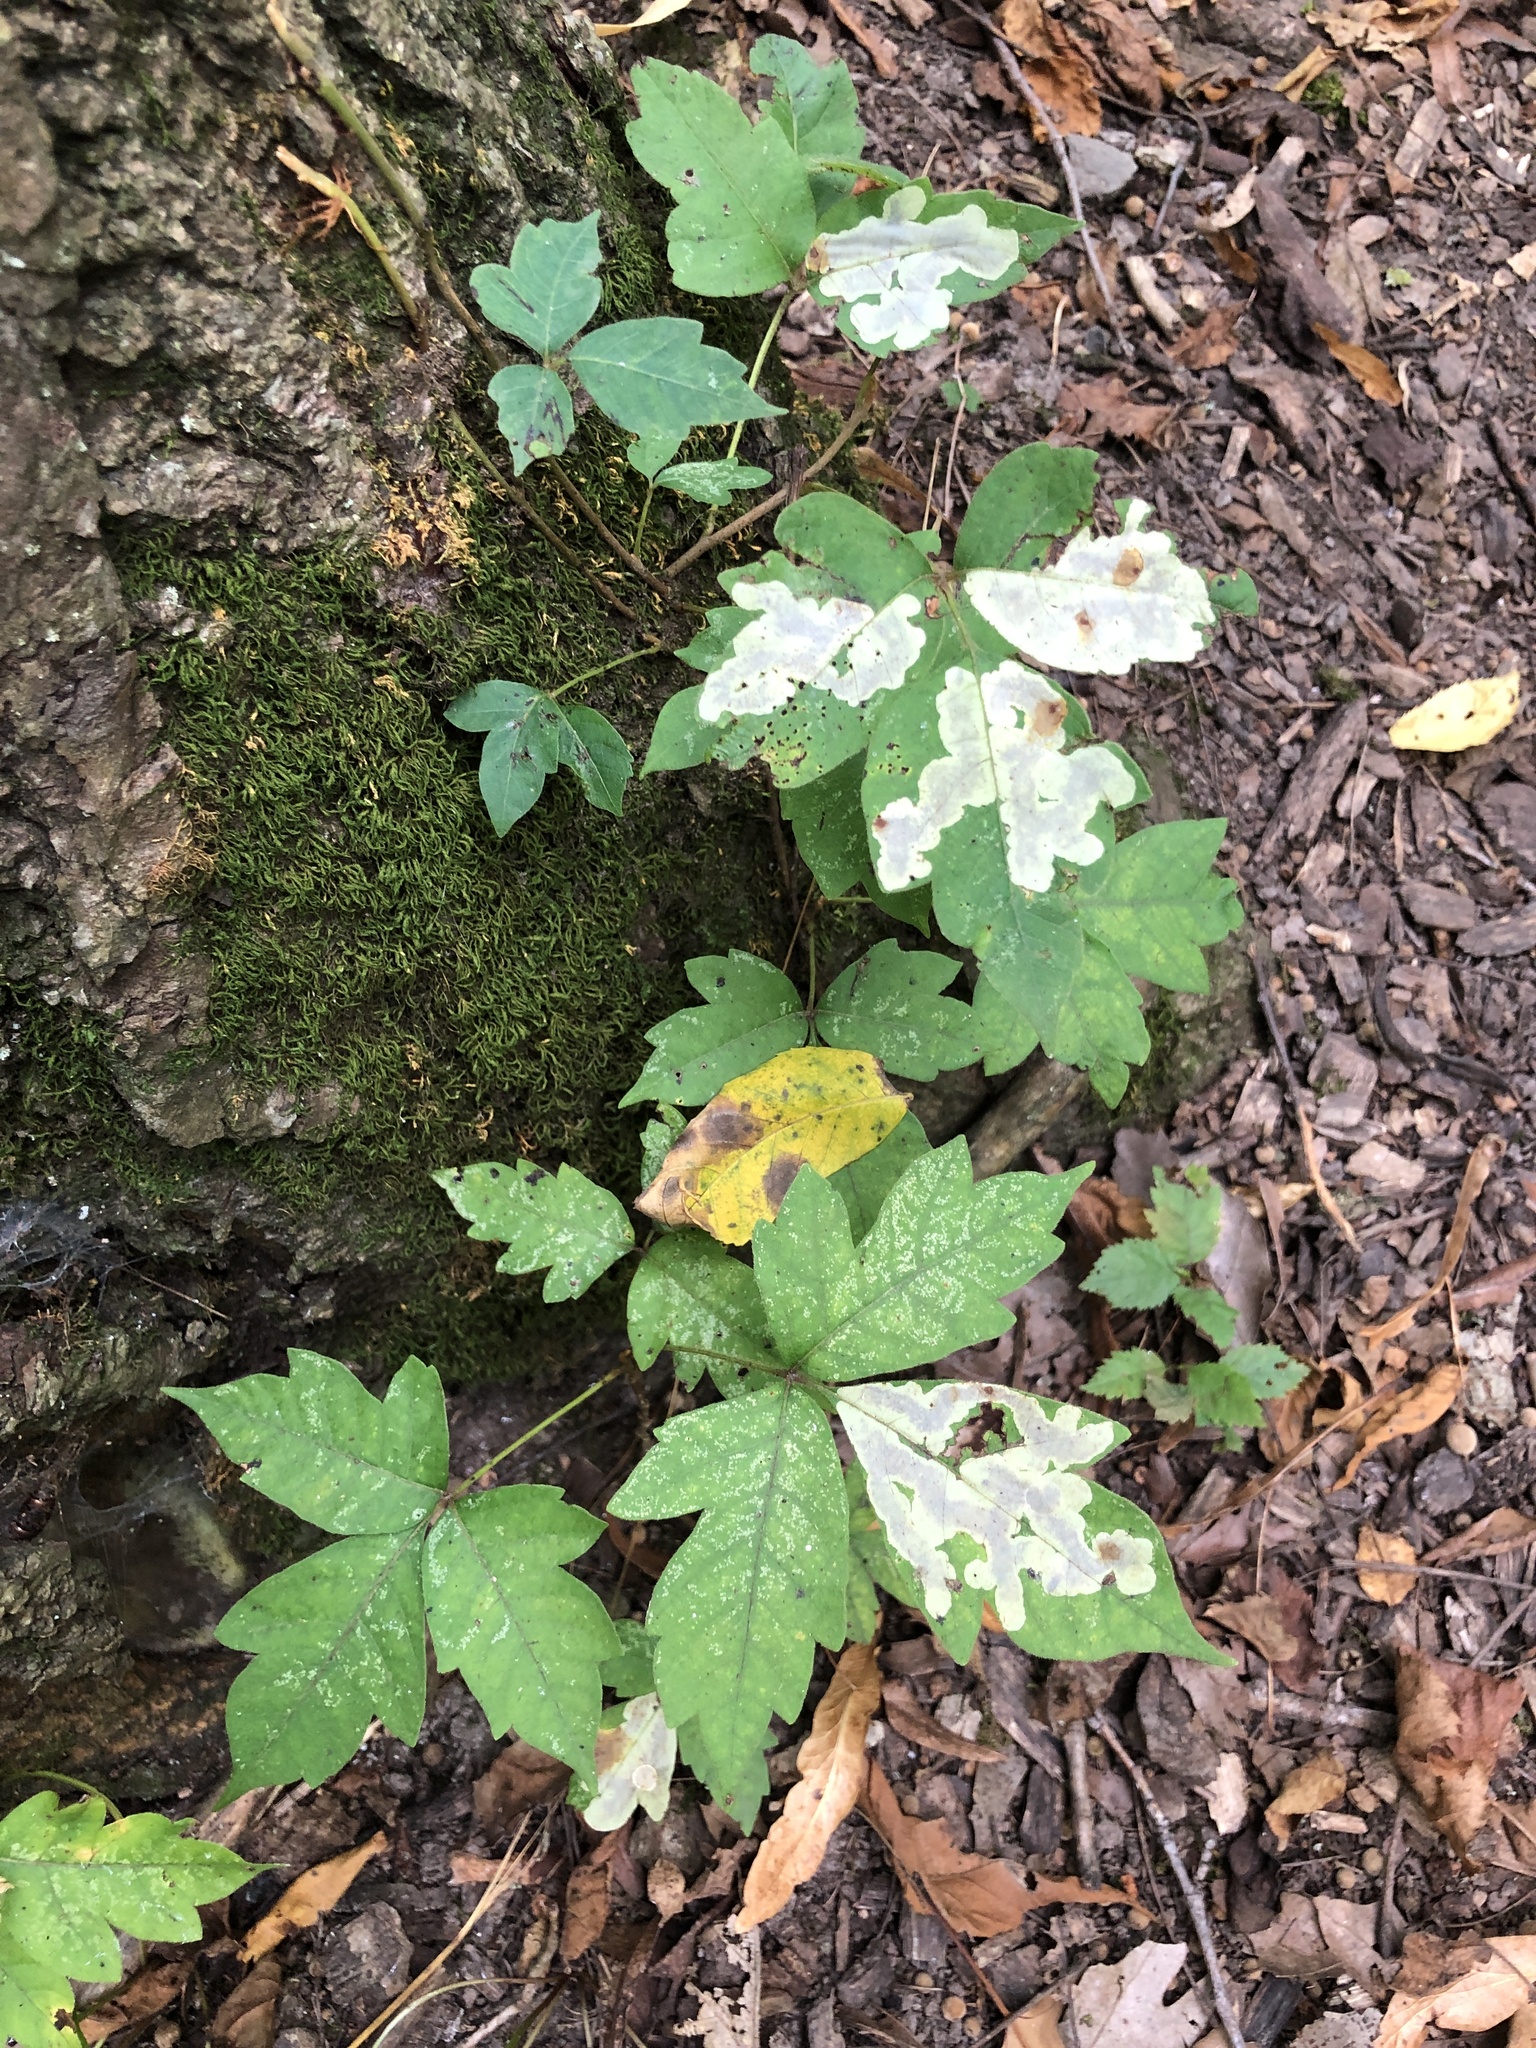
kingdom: Plantae
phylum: Tracheophyta
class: Magnoliopsida
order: Sapindales
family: Anacardiaceae
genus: Toxicodendron
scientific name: Toxicodendron radicans
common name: Poison ivy
